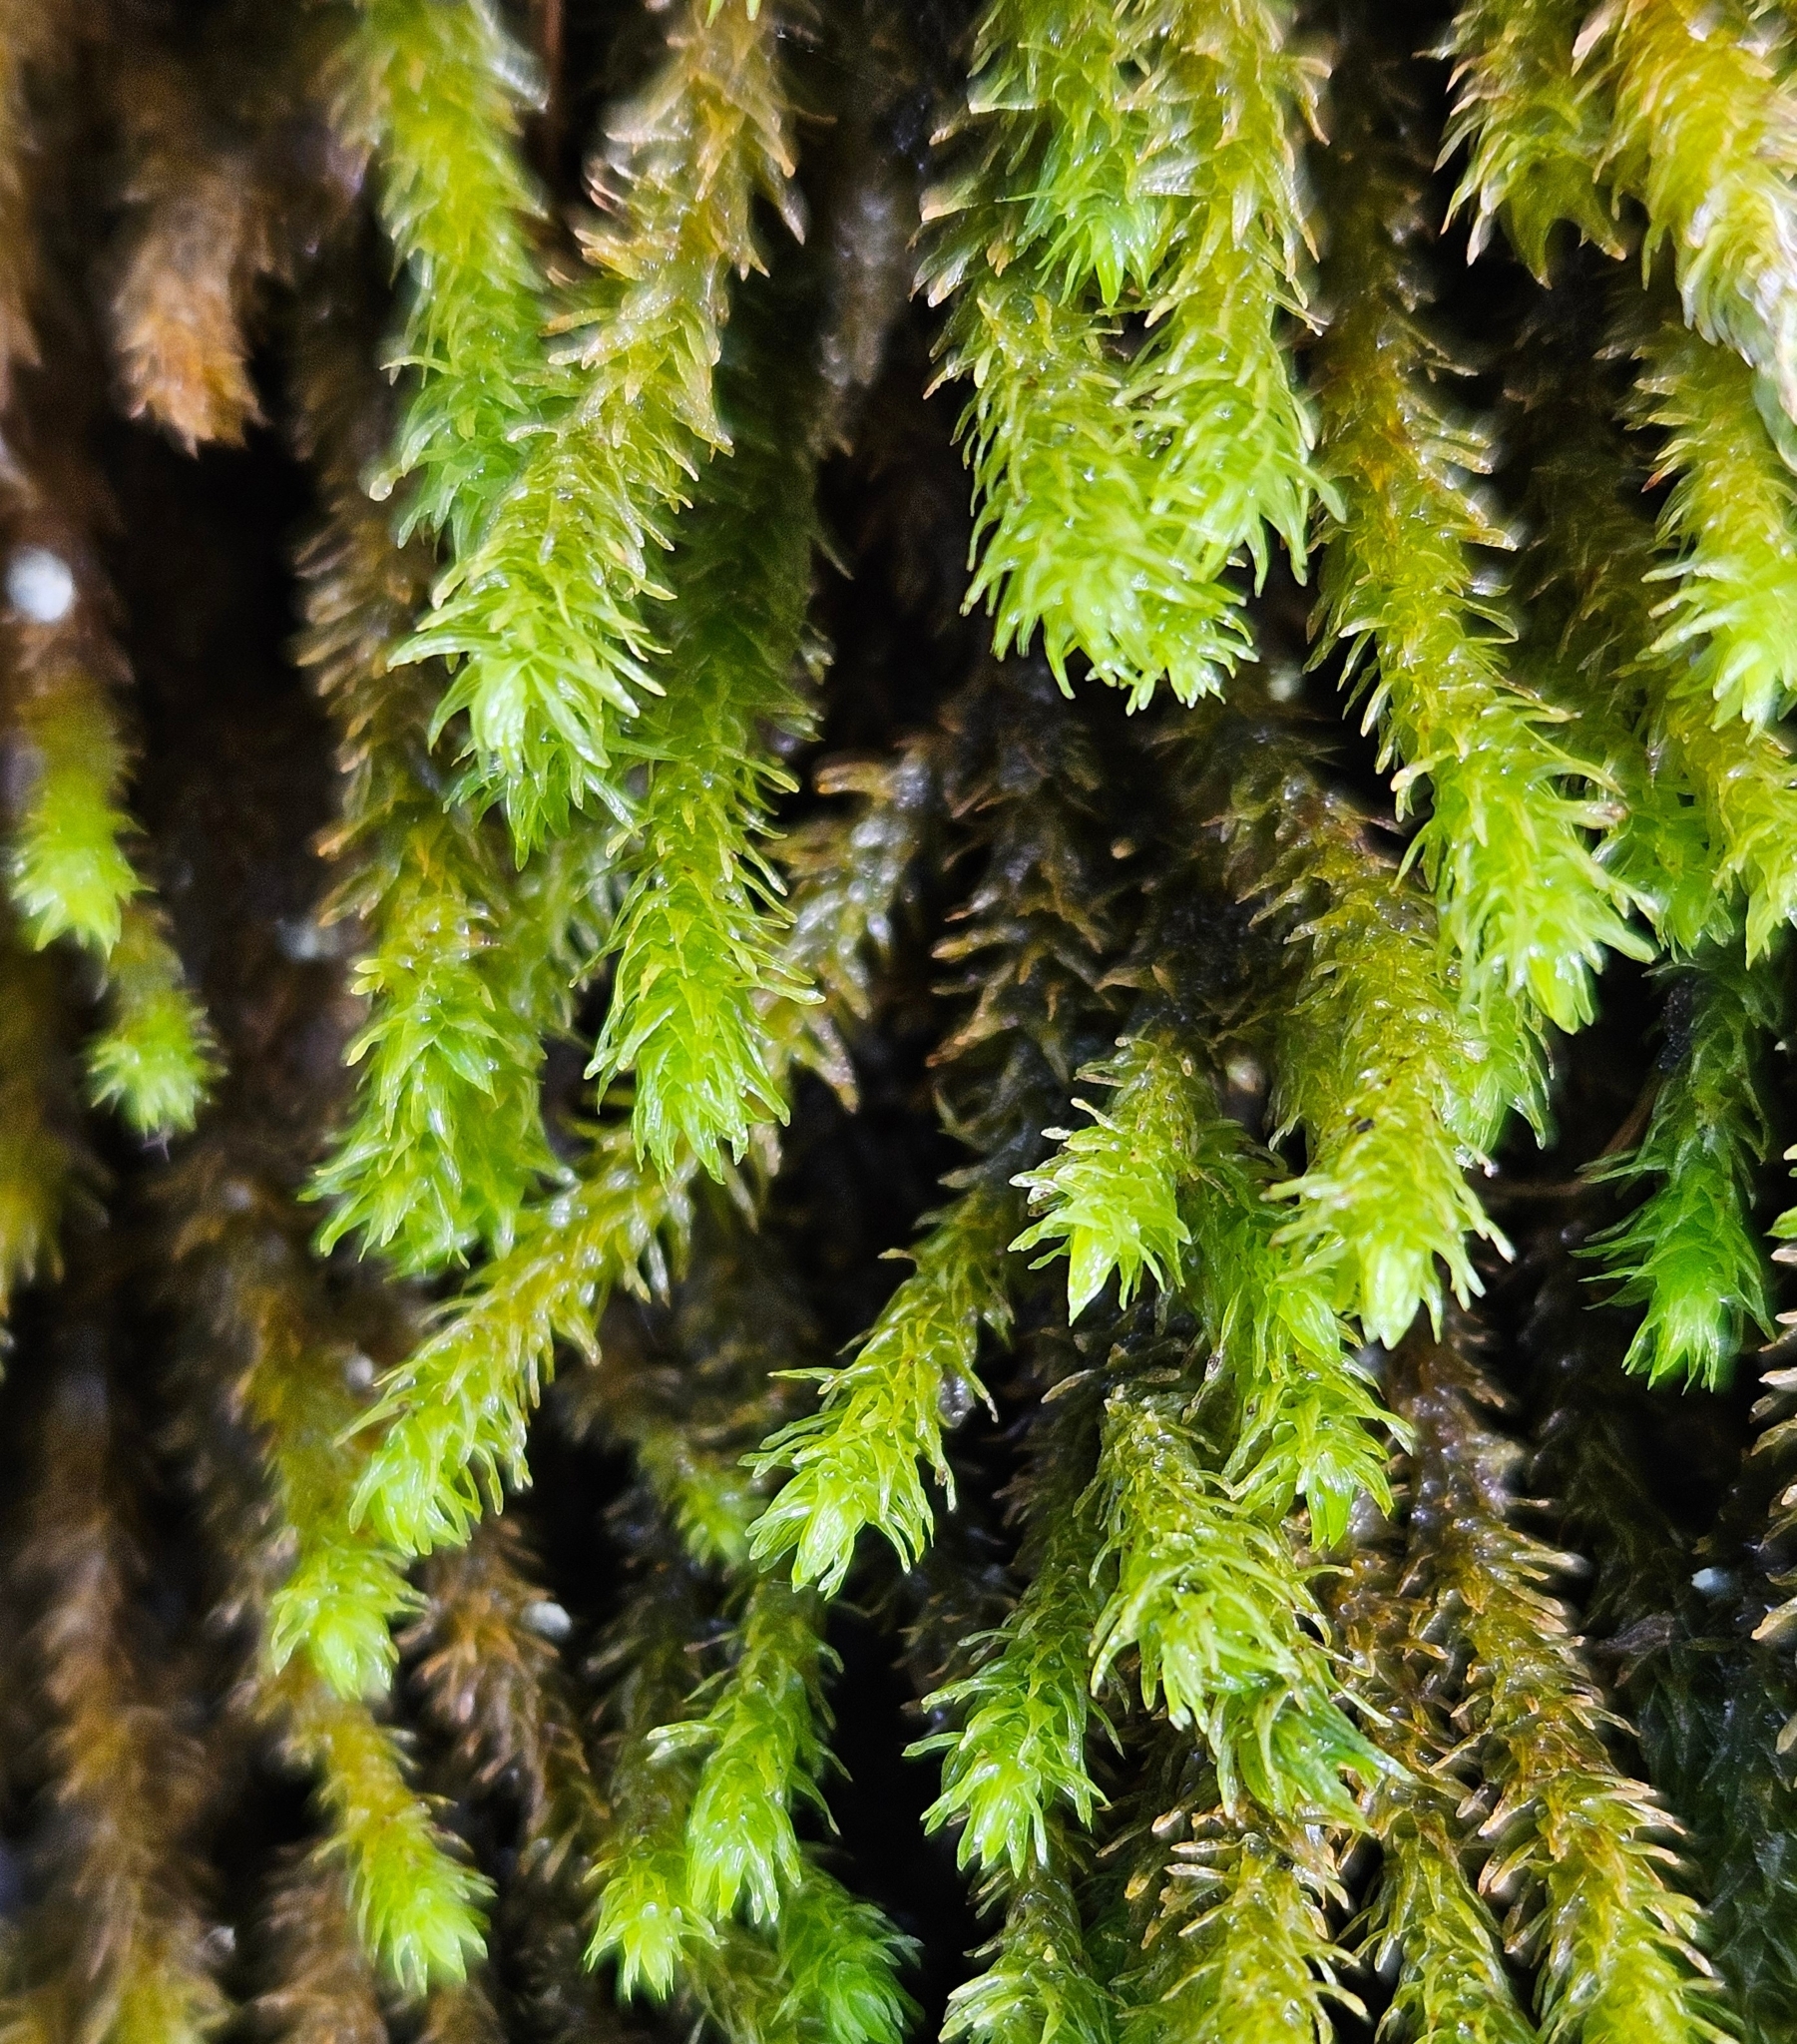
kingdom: Plantae
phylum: Bryophyta
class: Bryopsida
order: Hypnales
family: Anomodontaceae
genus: Anomodon
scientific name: Anomodon viticulosus
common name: Tall anomodon
